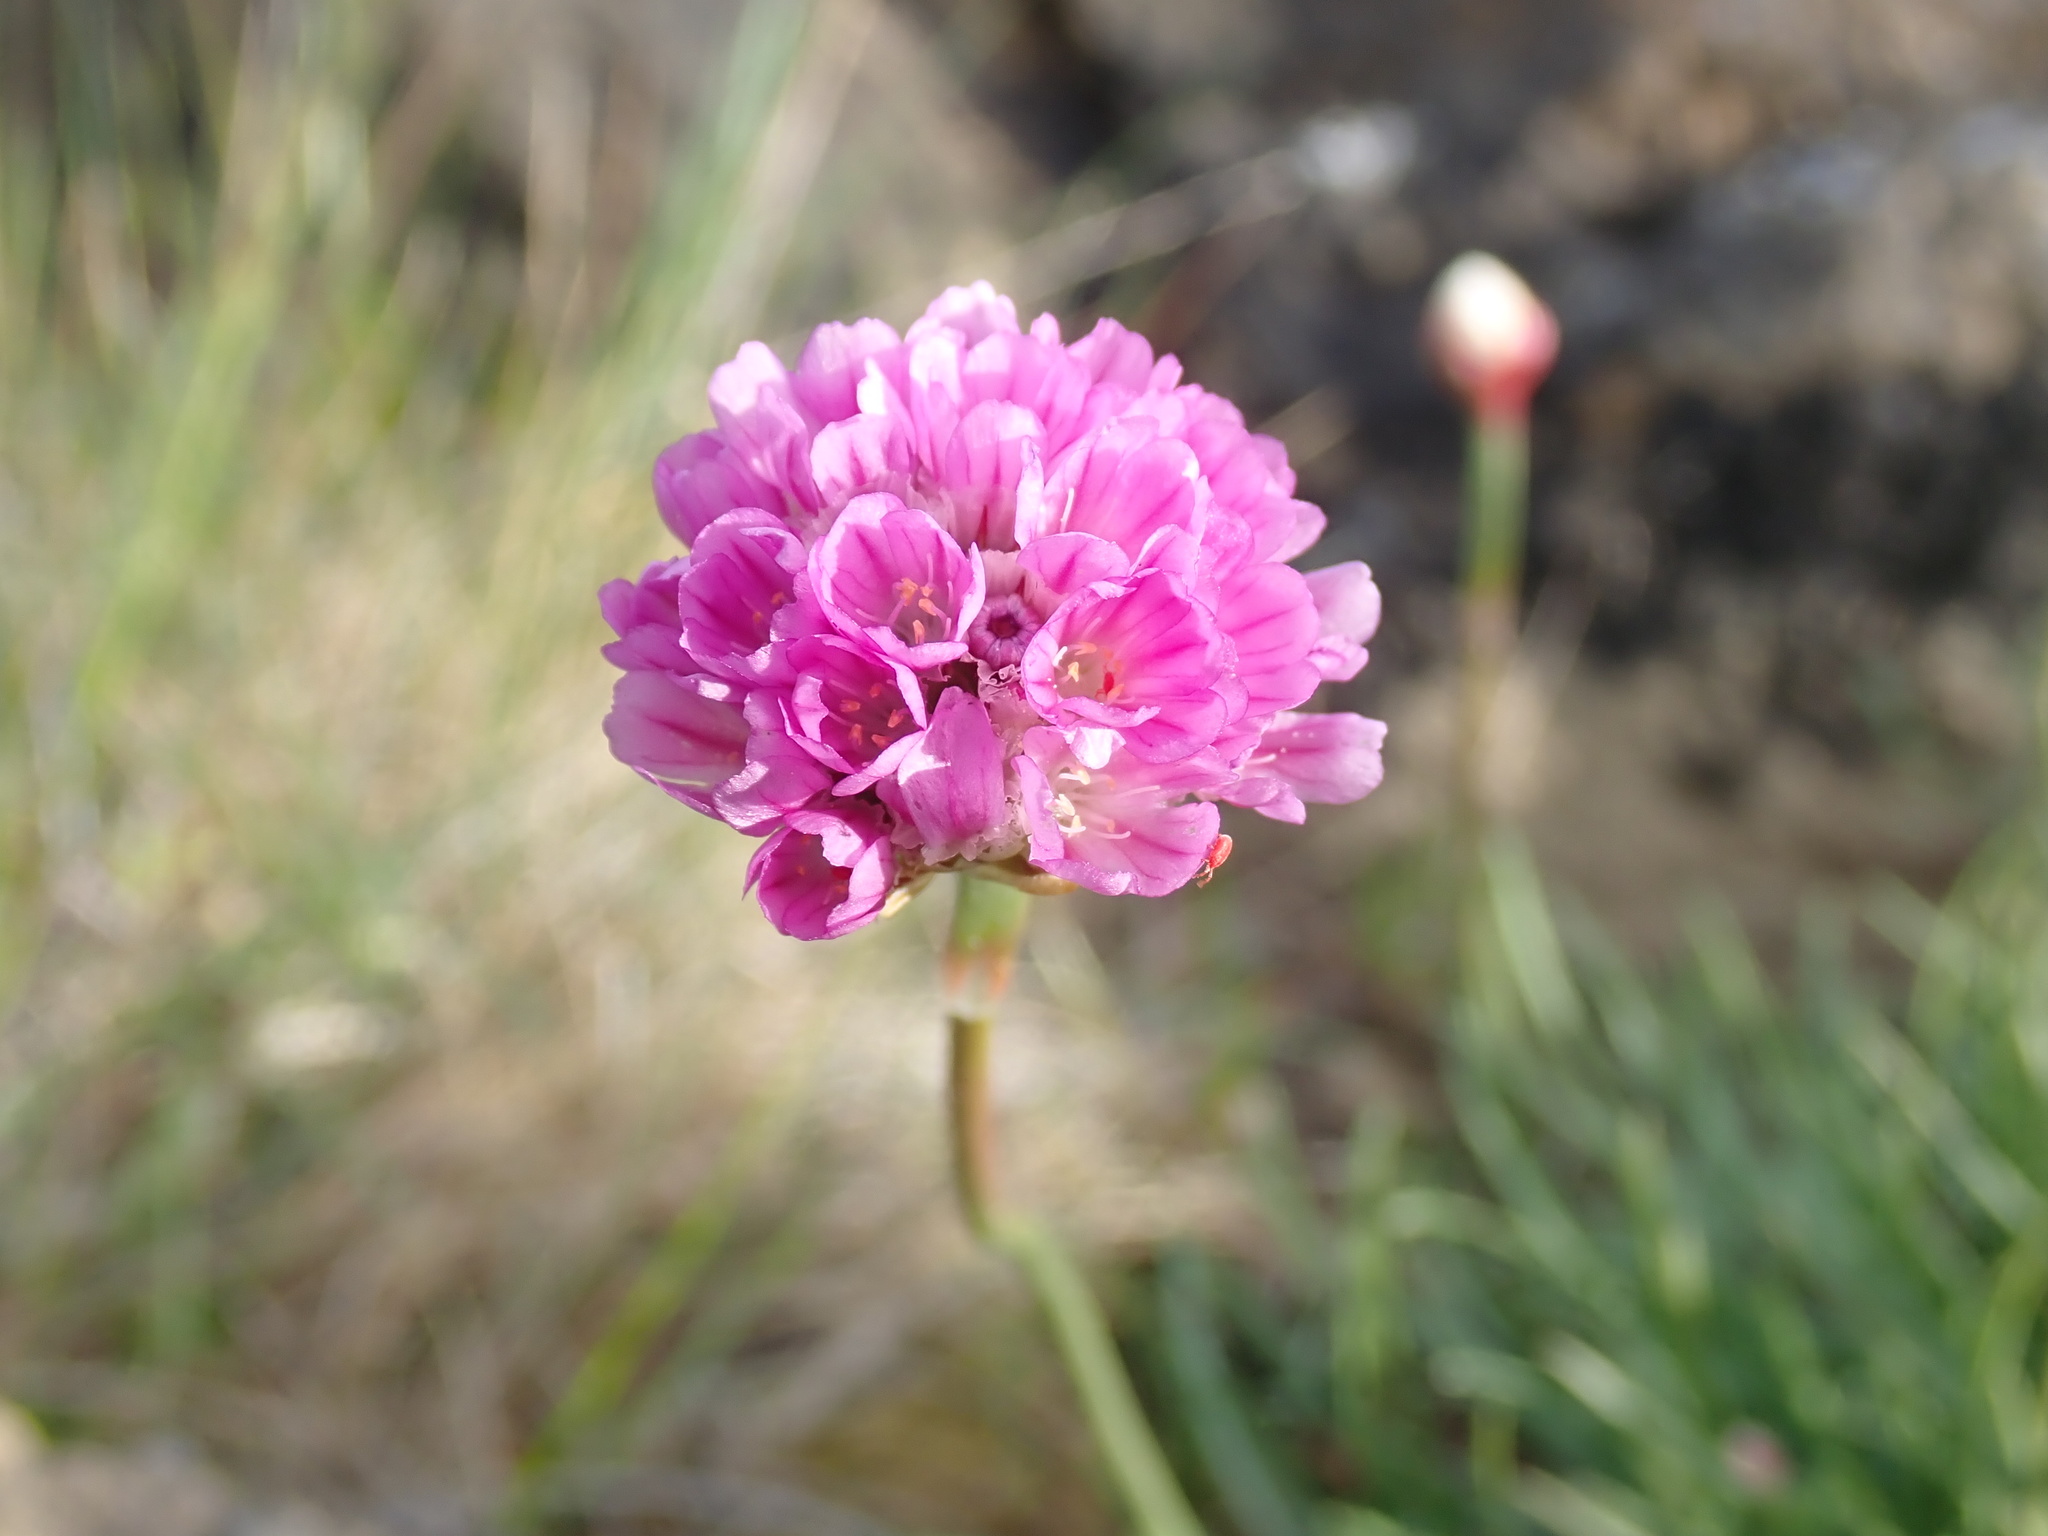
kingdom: Plantae
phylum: Tracheophyta
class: Magnoliopsida
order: Caryophyllales
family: Plumbaginaceae
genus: Armeria
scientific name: Armeria maritima
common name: Thrift
